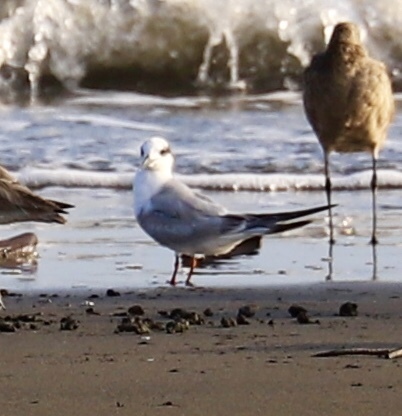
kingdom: Animalia
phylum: Chordata
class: Aves
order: Charadriiformes
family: Laridae
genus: Sterna
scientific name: Sterna forsteri
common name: Forster's tern
